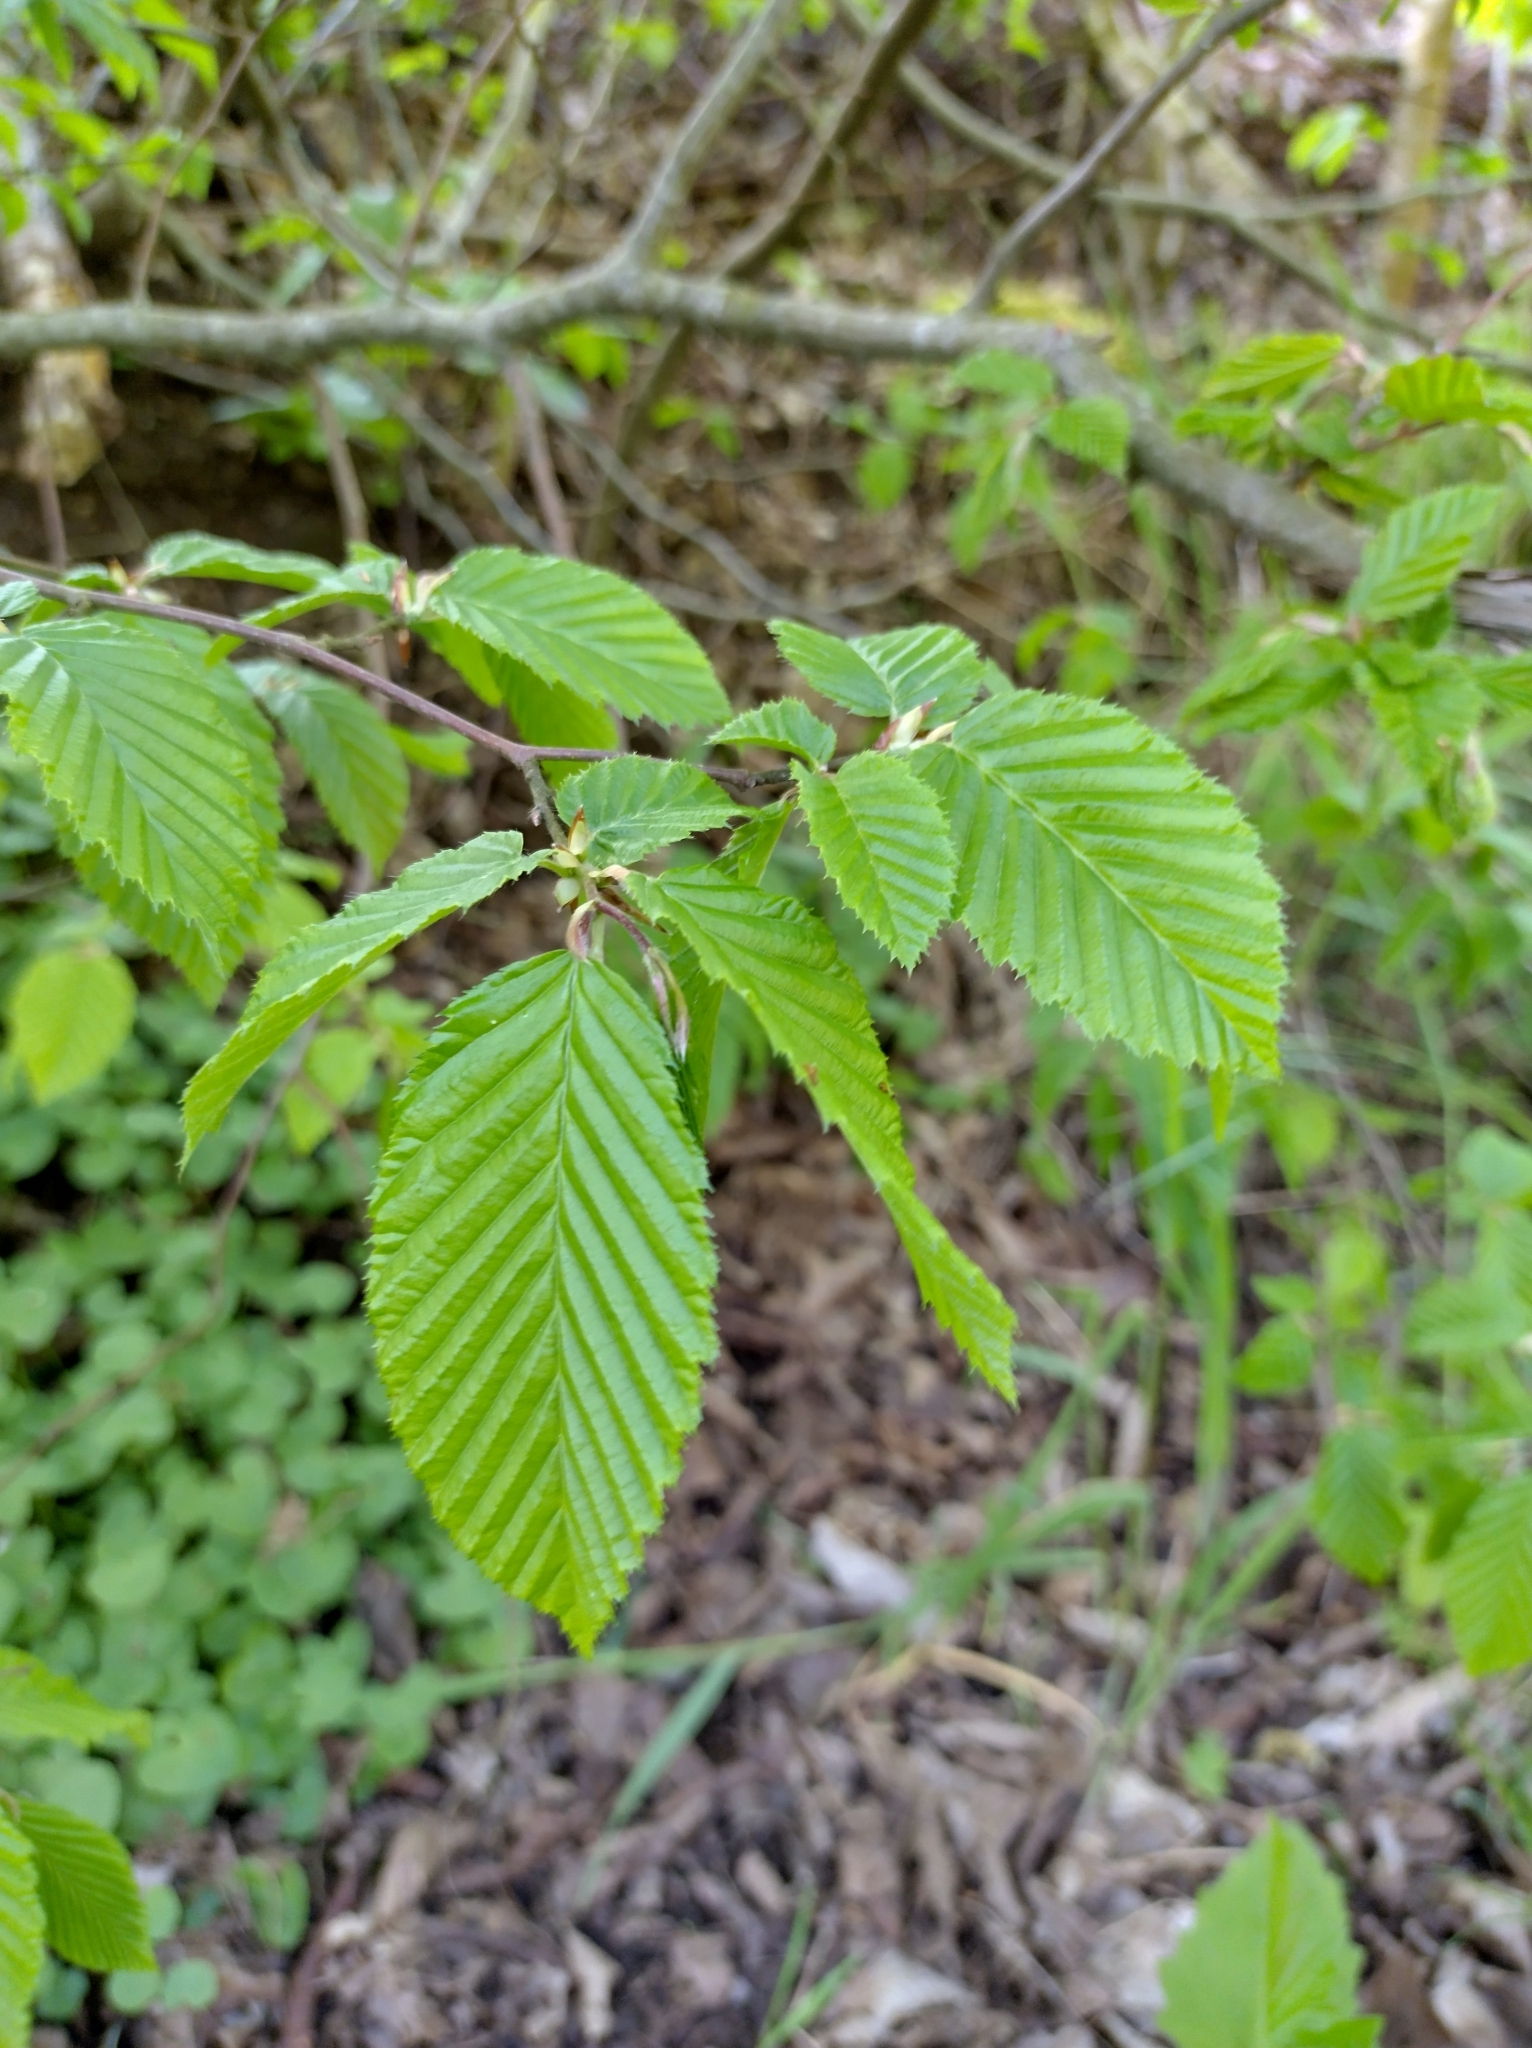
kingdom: Plantae
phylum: Tracheophyta
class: Magnoliopsida
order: Fagales
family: Betulaceae
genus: Carpinus
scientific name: Carpinus betulus
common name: Hornbeam
